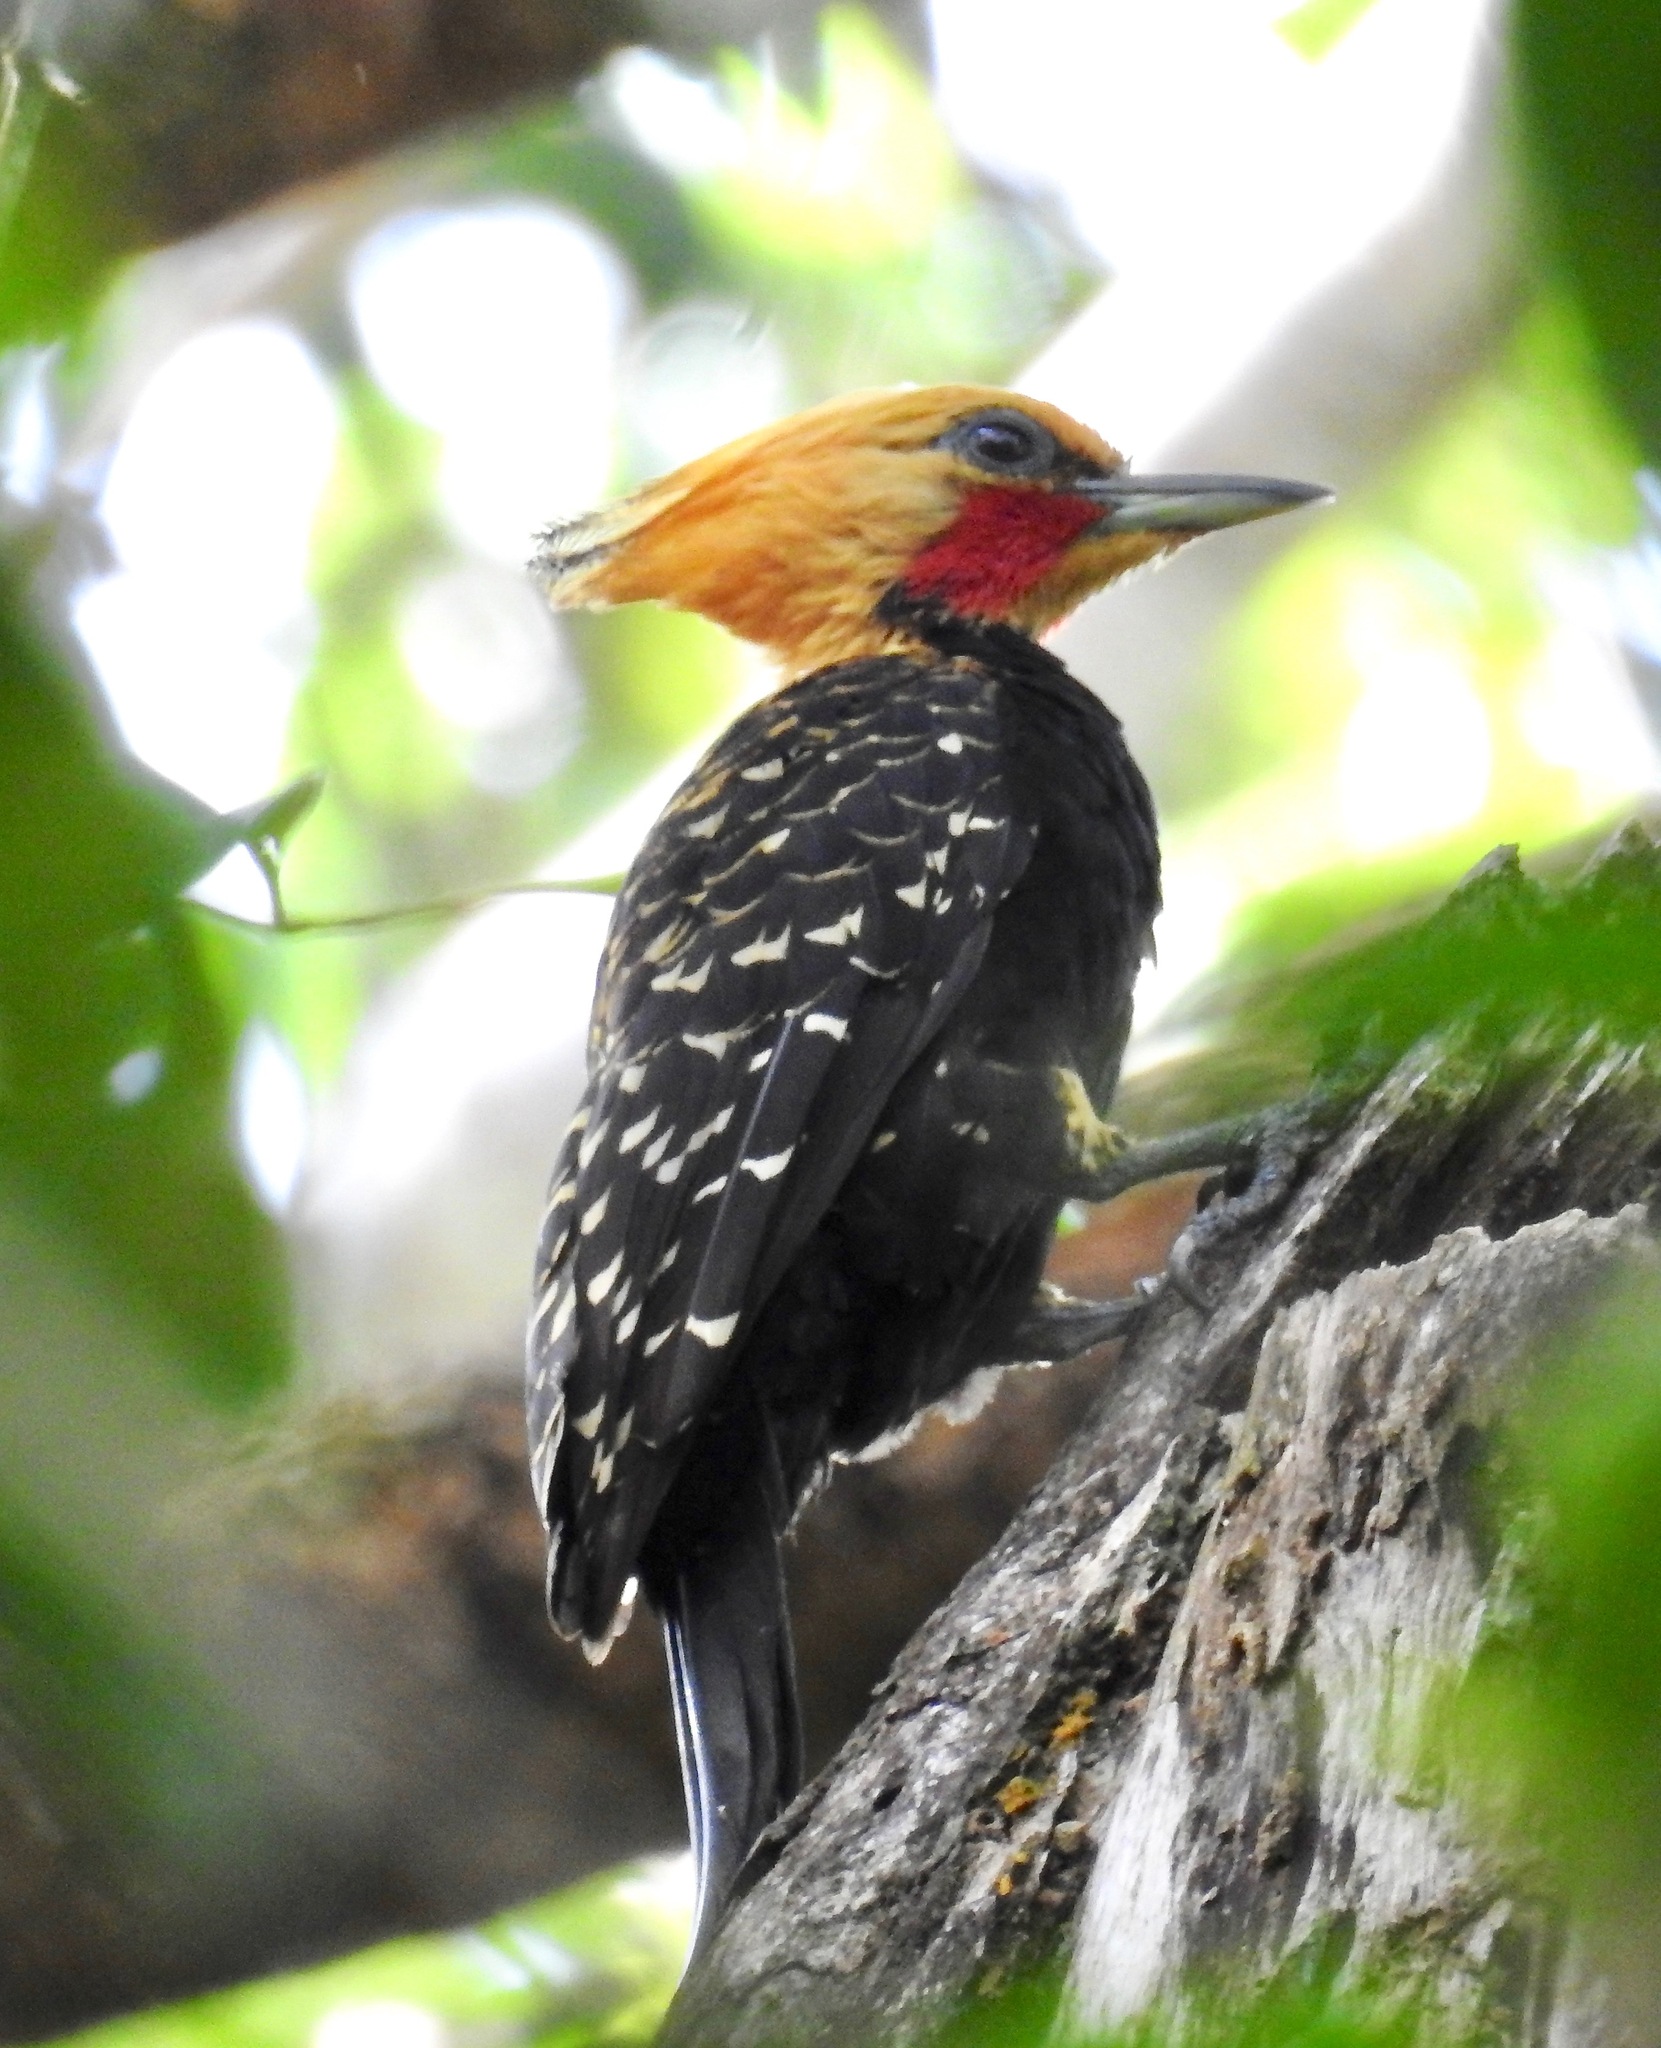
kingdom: Animalia
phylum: Chordata
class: Aves
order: Piciformes
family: Picidae
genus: Celeus
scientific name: Celeus flavescens
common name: Blond-crested woodpecker
